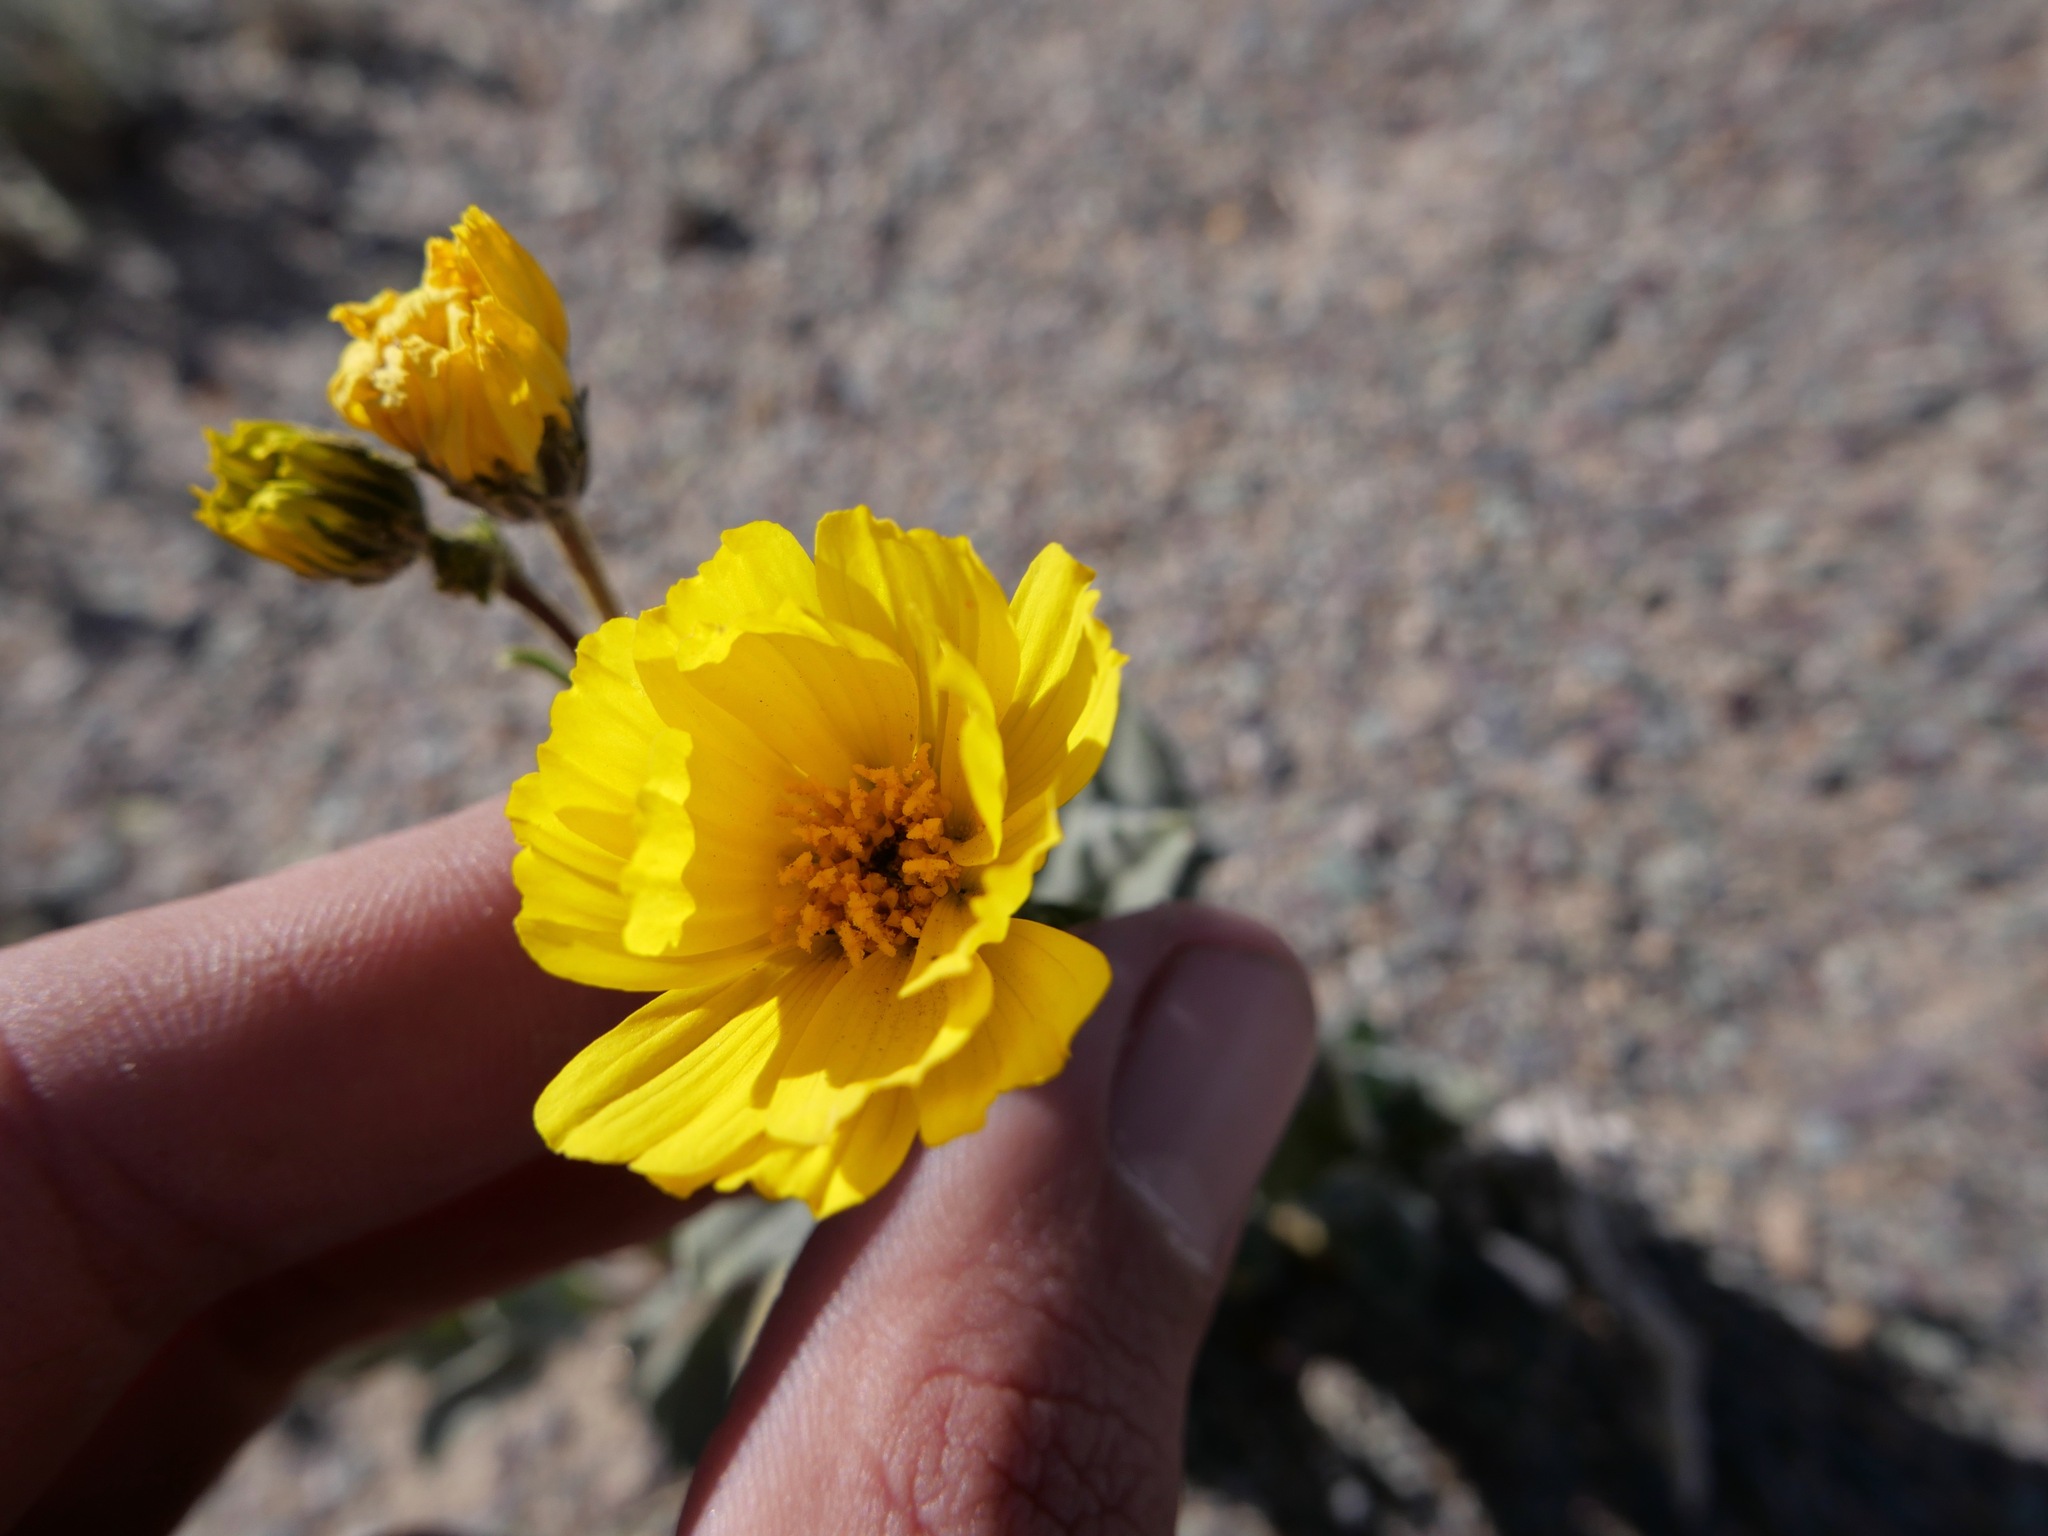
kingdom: Plantae
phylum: Tracheophyta
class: Magnoliopsida
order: Asterales
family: Asteraceae
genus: Geraea
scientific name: Geraea canescens
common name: Desert-gold
